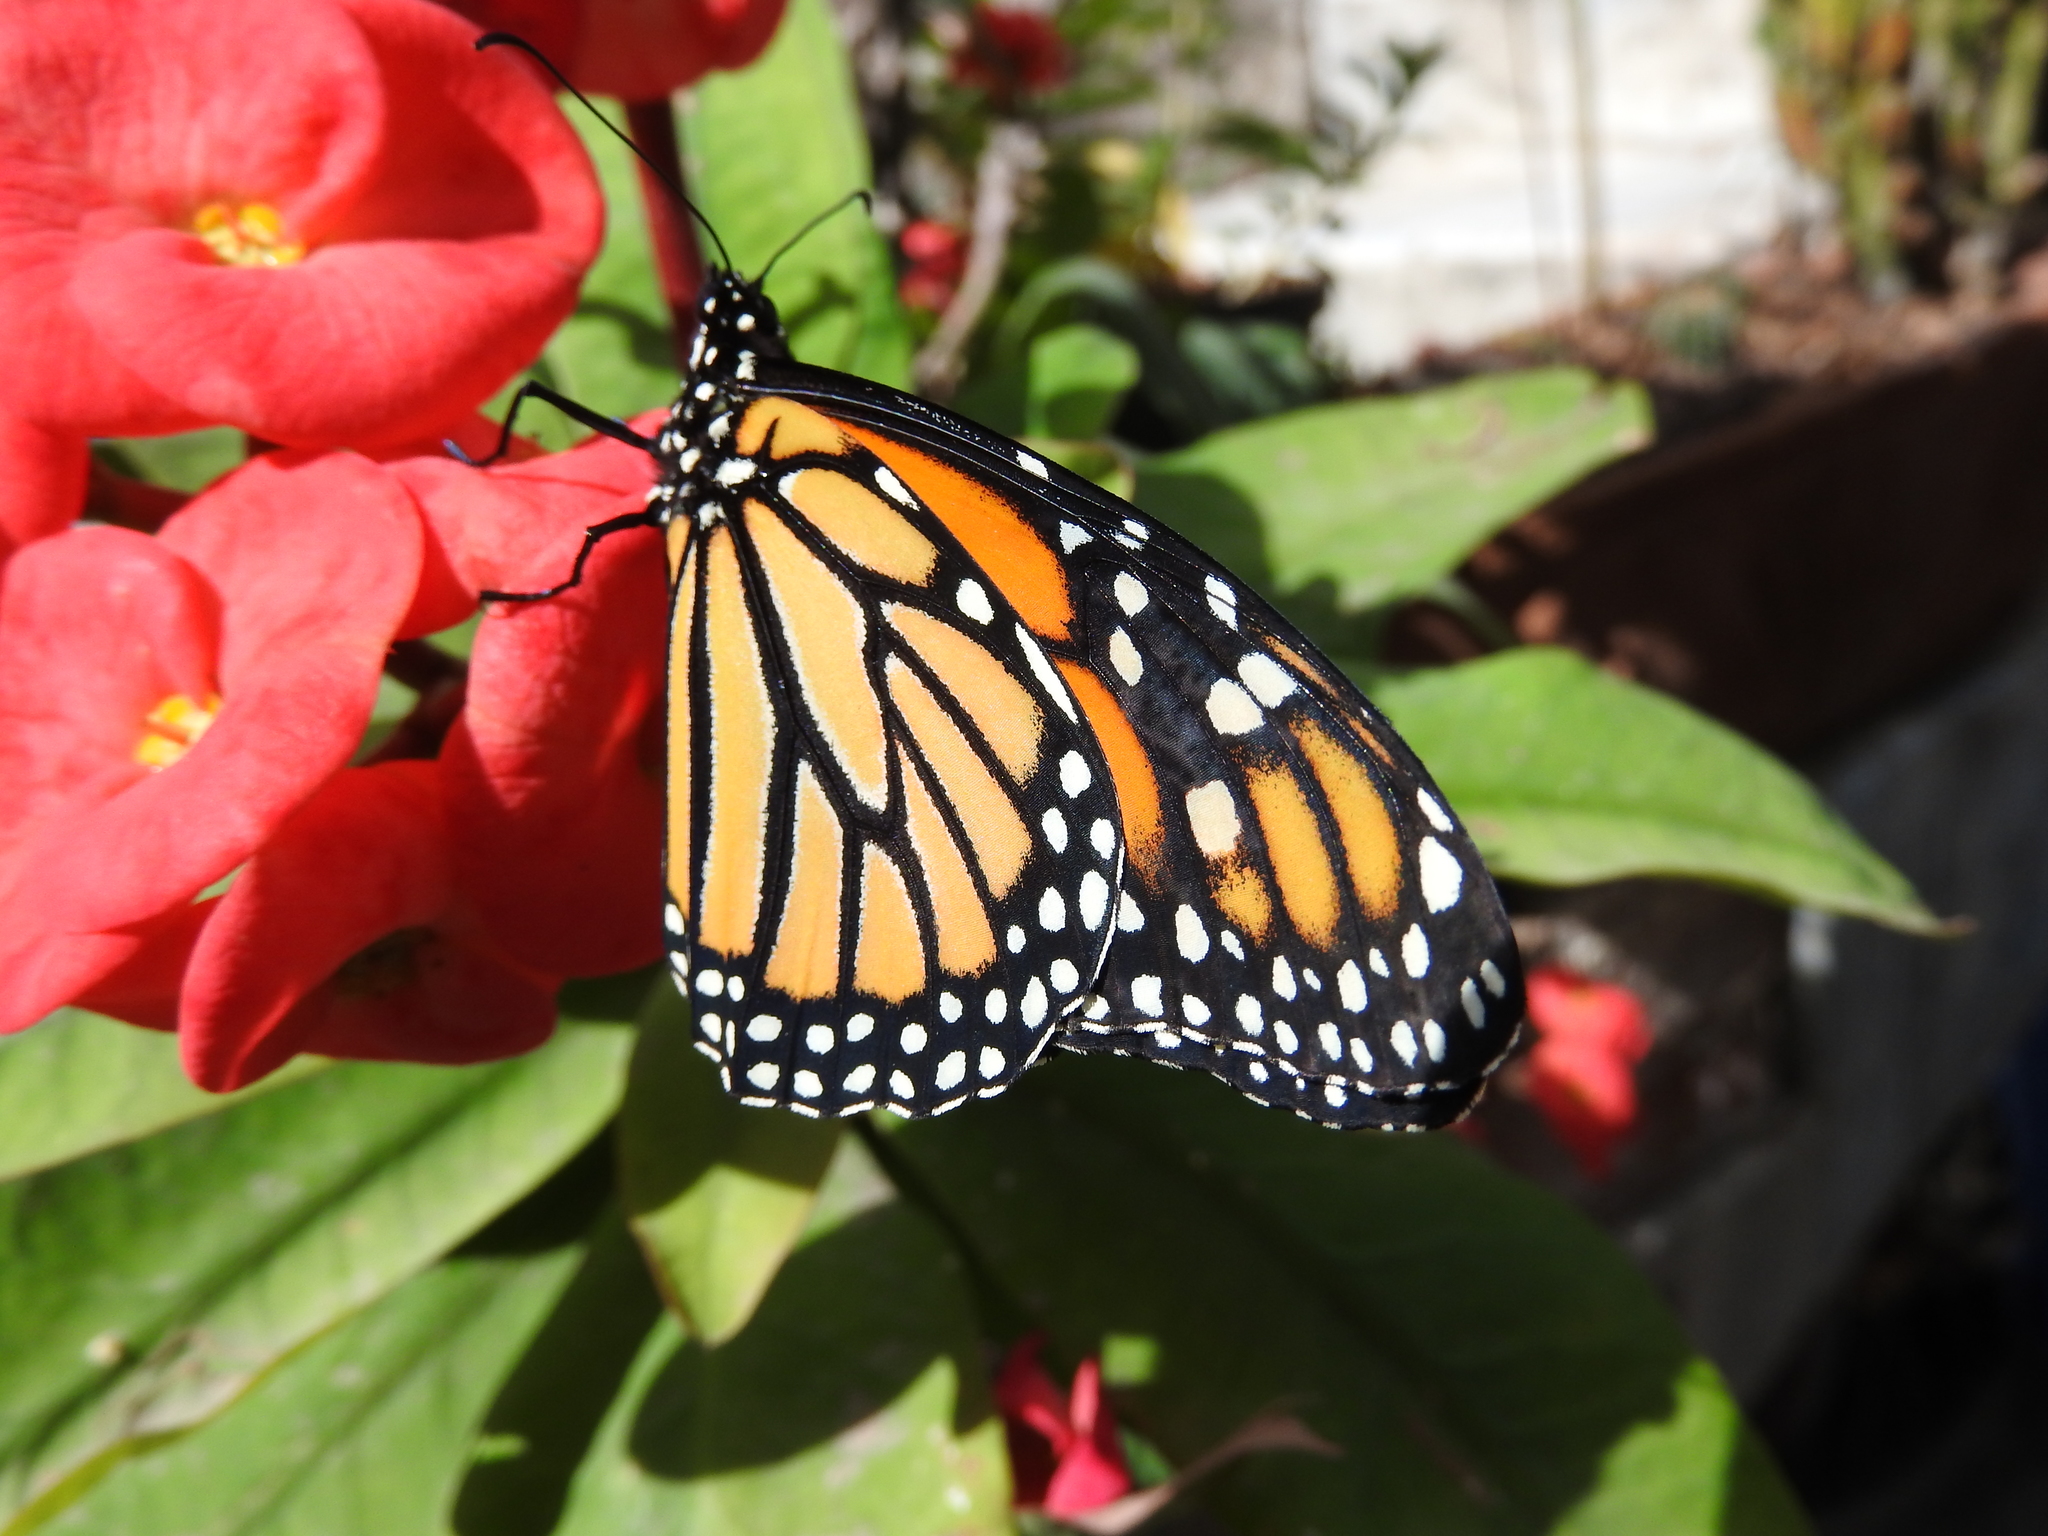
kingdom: Animalia
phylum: Arthropoda
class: Insecta
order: Lepidoptera
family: Nymphalidae
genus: Danaus
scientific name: Danaus plexippus
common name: Monarch
